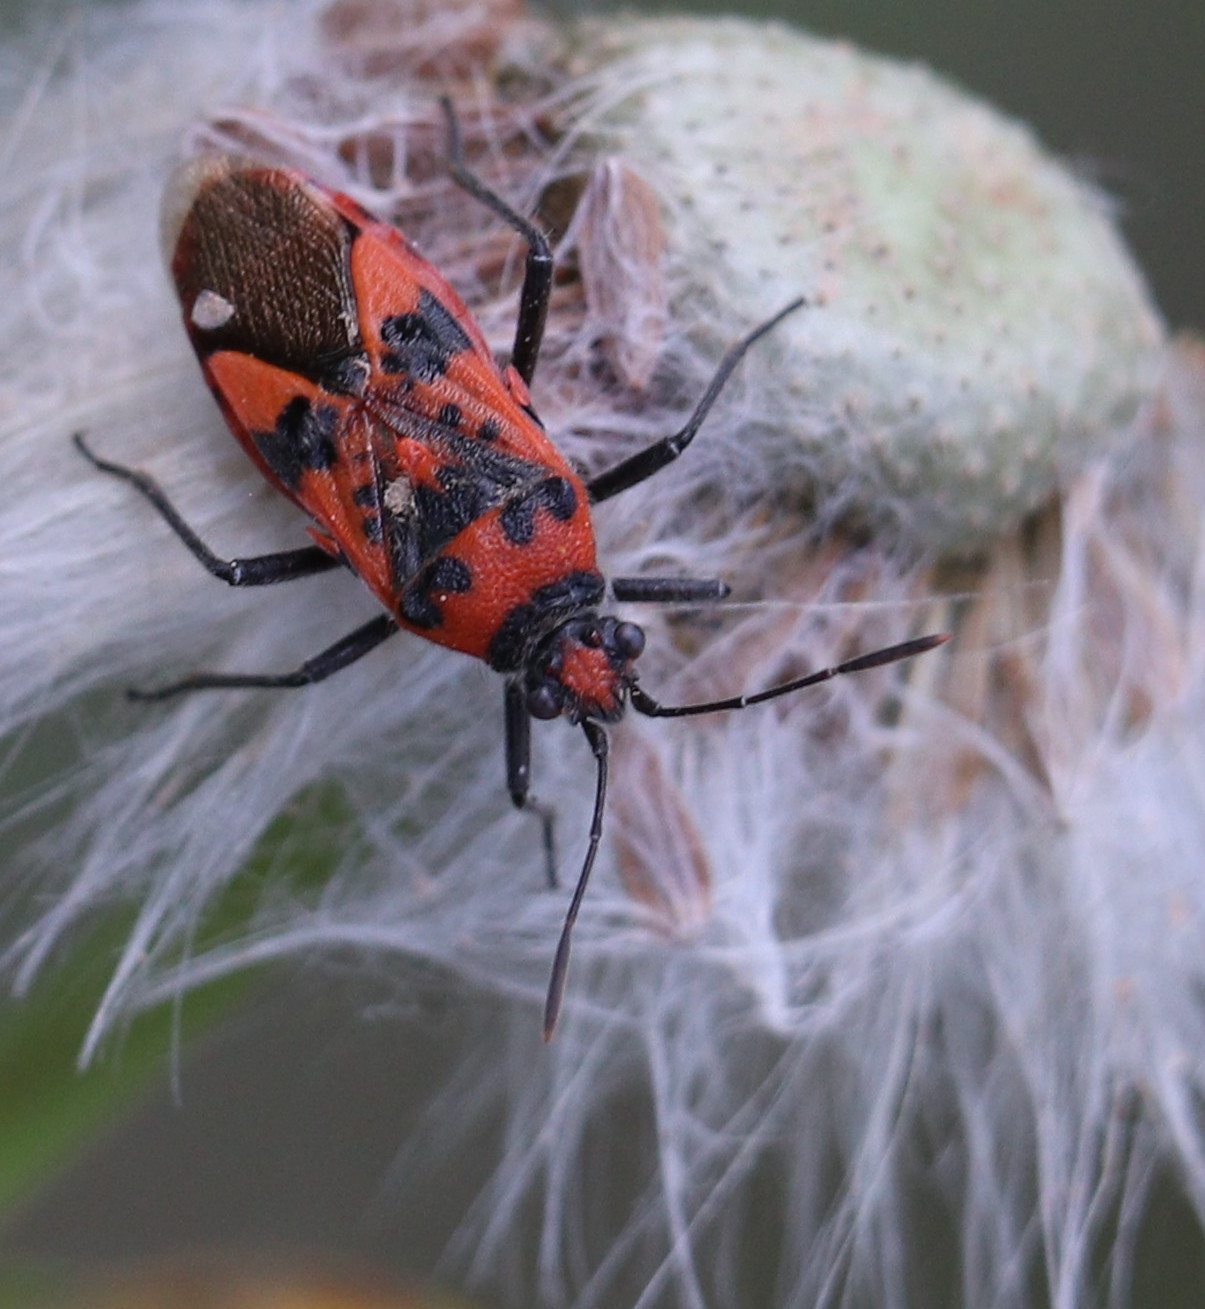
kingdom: Animalia
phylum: Arthropoda
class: Insecta
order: Hemiptera
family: Rhopalidae
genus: Corizus
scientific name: Corizus hyoscyami
